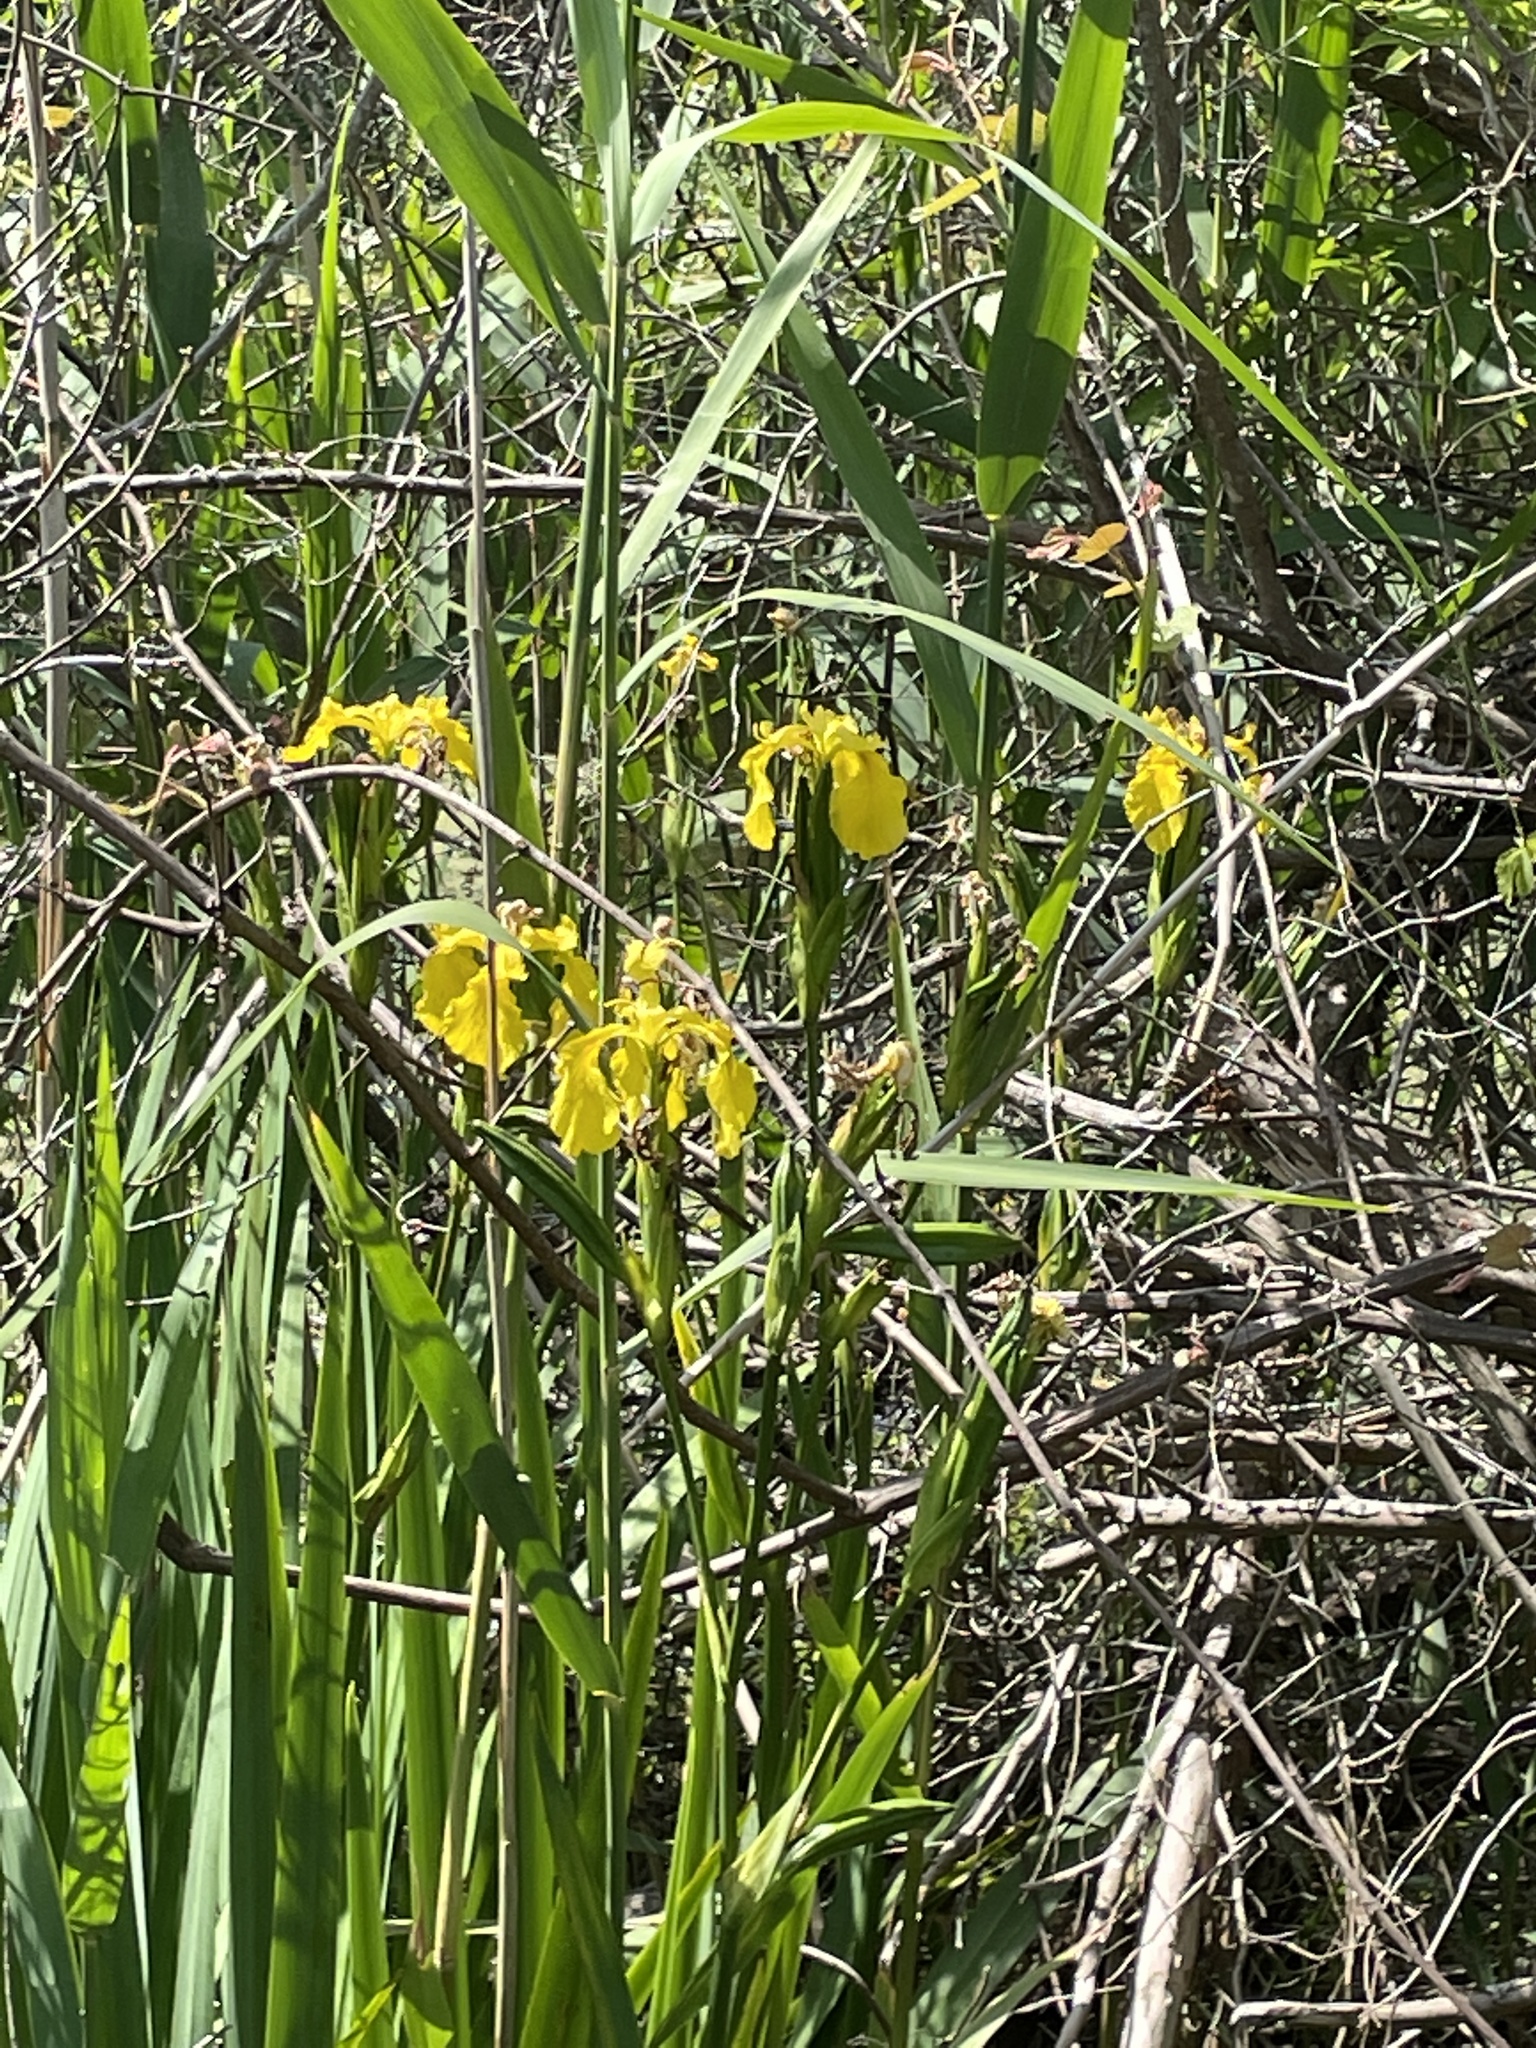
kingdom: Plantae
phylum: Tracheophyta
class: Liliopsida
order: Asparagales
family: Iridaceae
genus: Iris
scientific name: Iris pseudacorus
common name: Yellow flag
